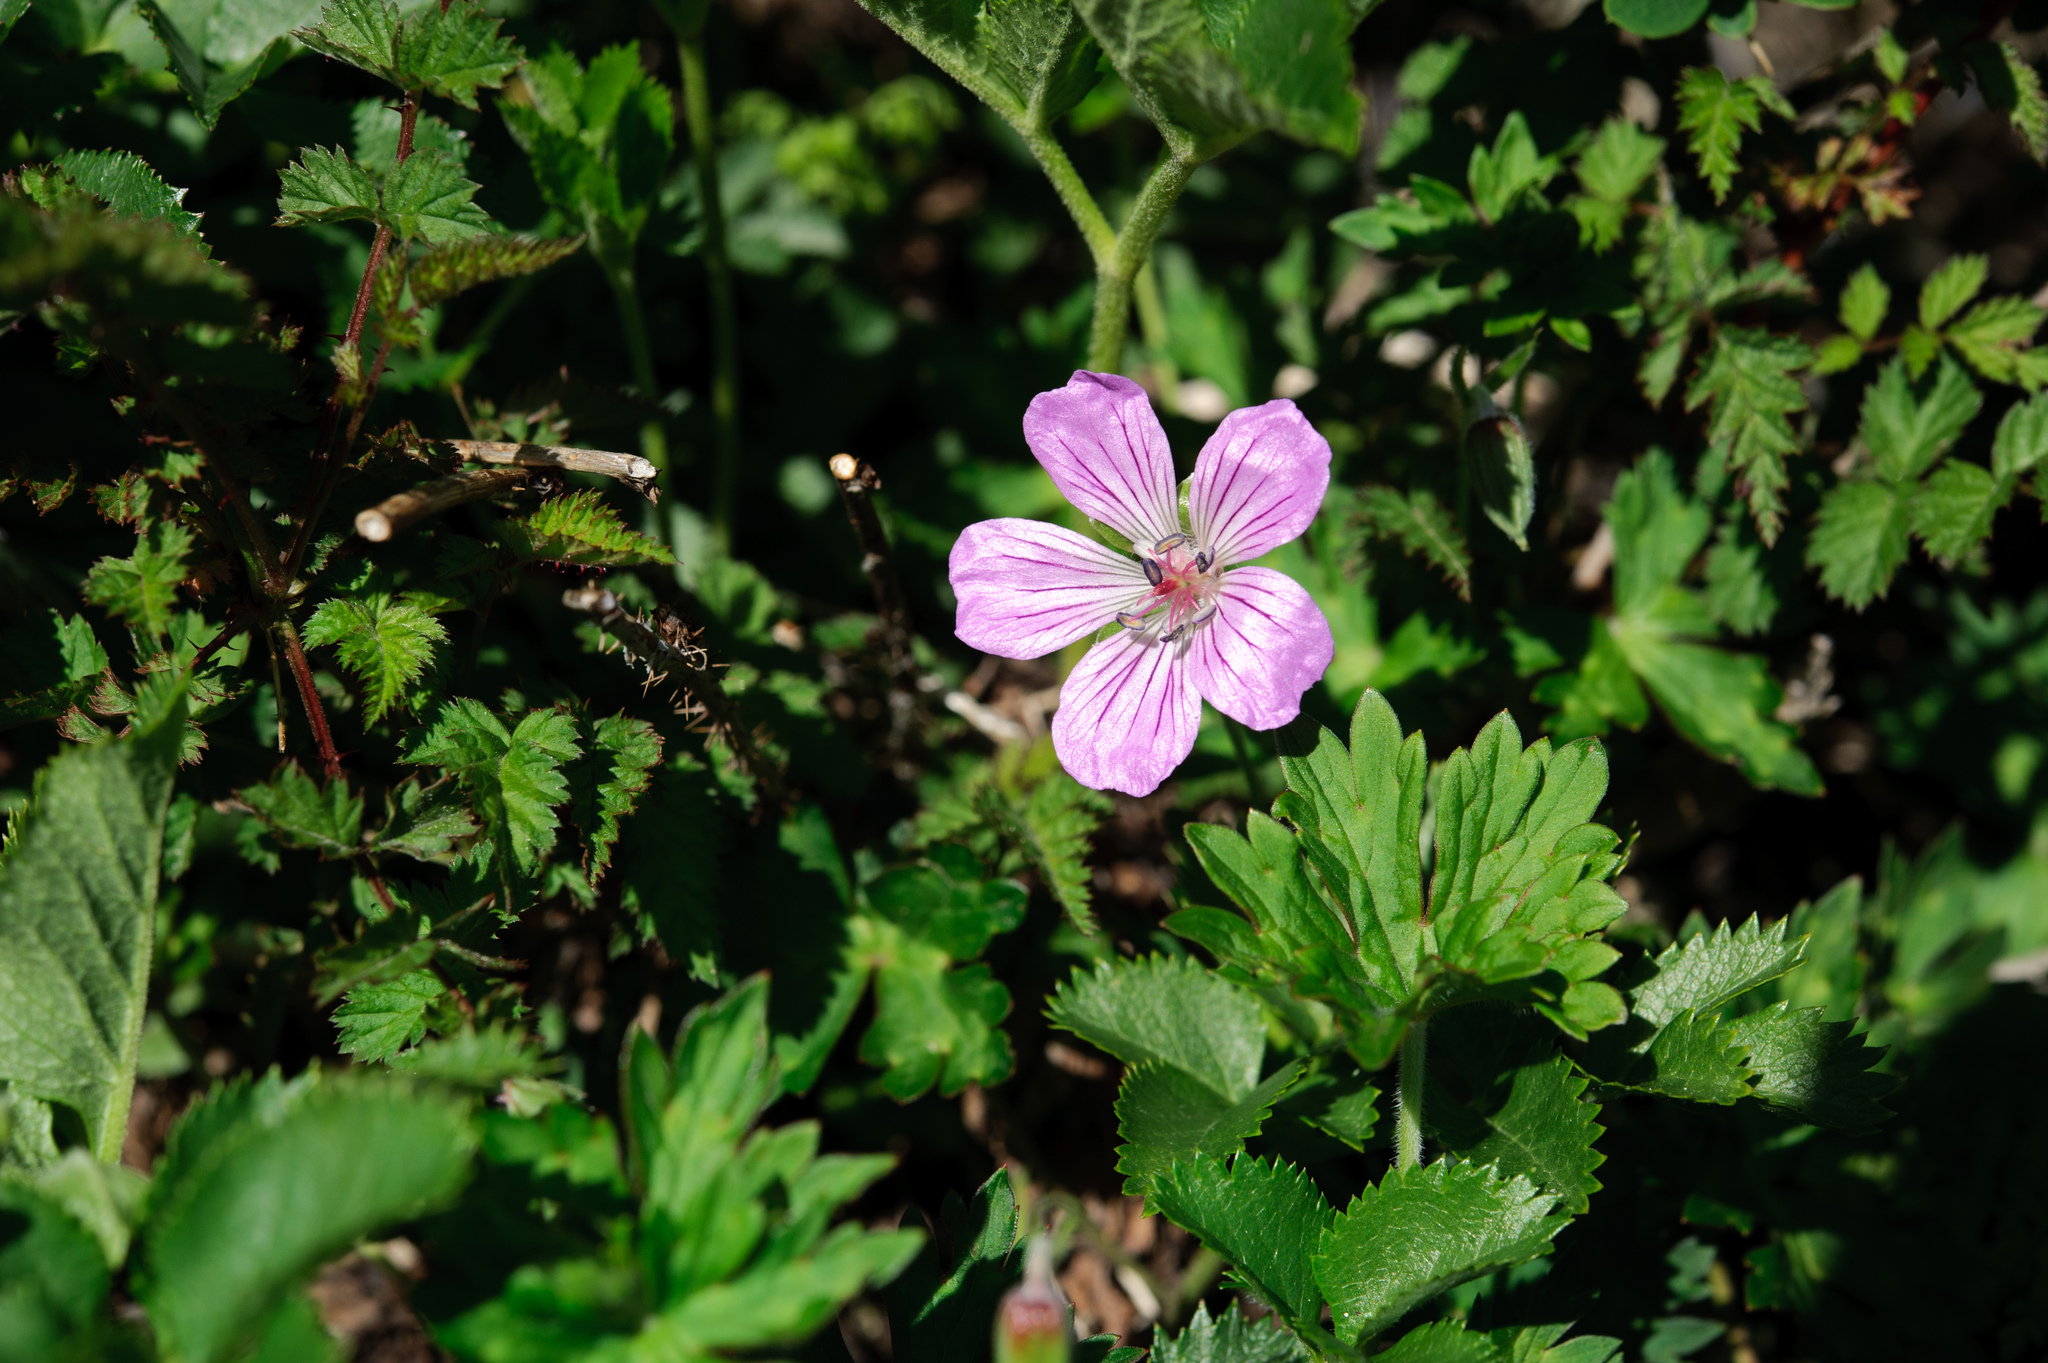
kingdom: Plantae
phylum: Tracheophyta
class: Magnoliopsida
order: Geraniales
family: Geraniaceae
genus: Geranium
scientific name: Geranium hayatanum
